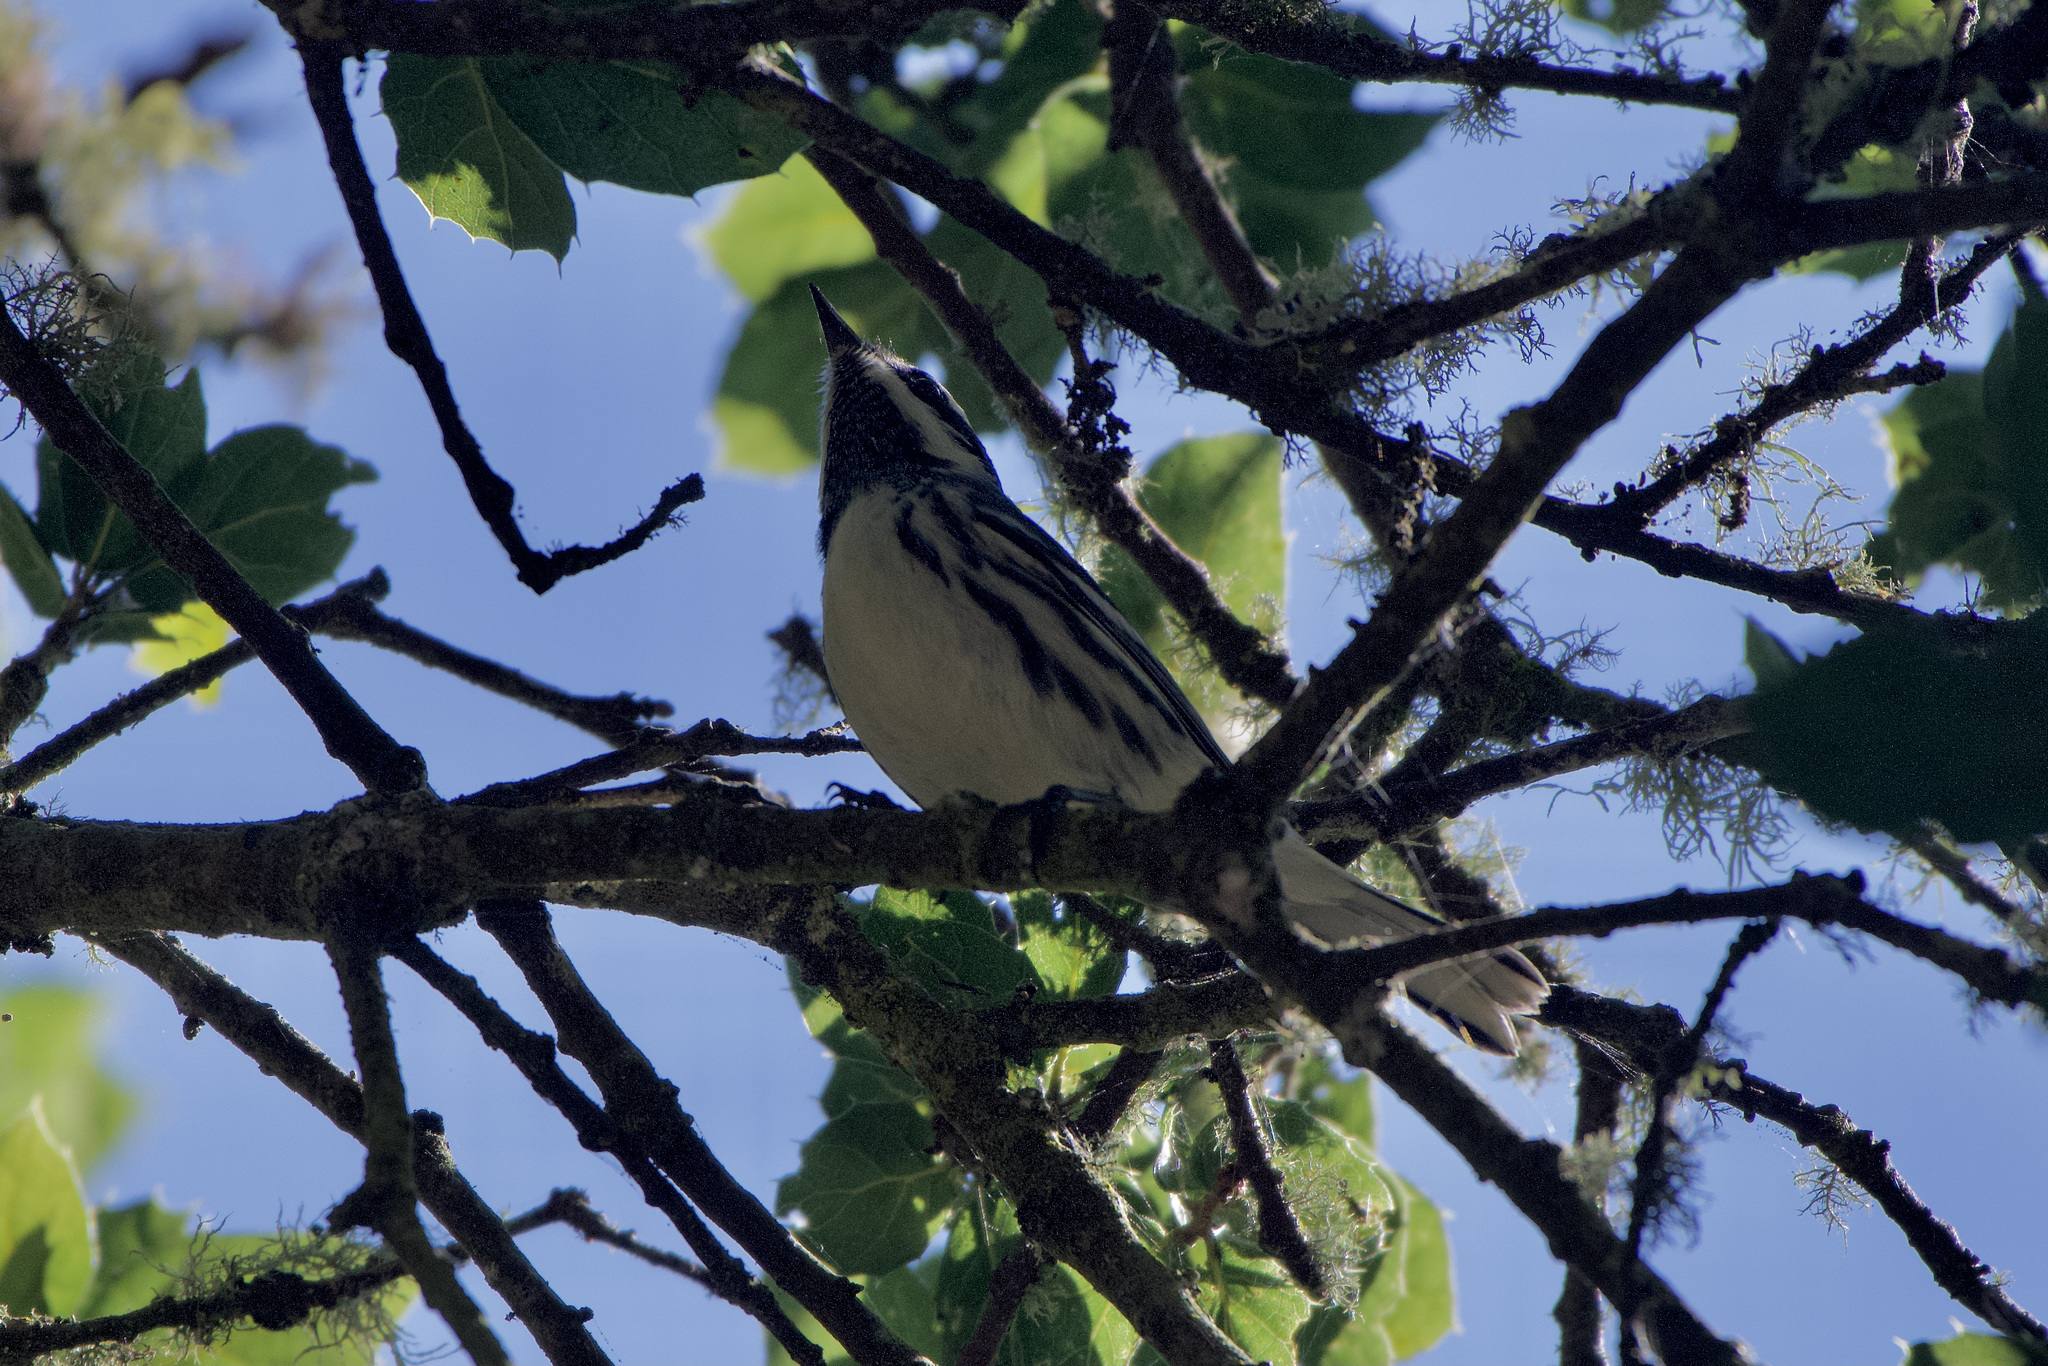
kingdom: Animalia
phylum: Chordata
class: Aves
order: Passeriformes
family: Parulidae
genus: Setophaga
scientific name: Setophaga nigrescens
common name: Black-throated gray warbler
